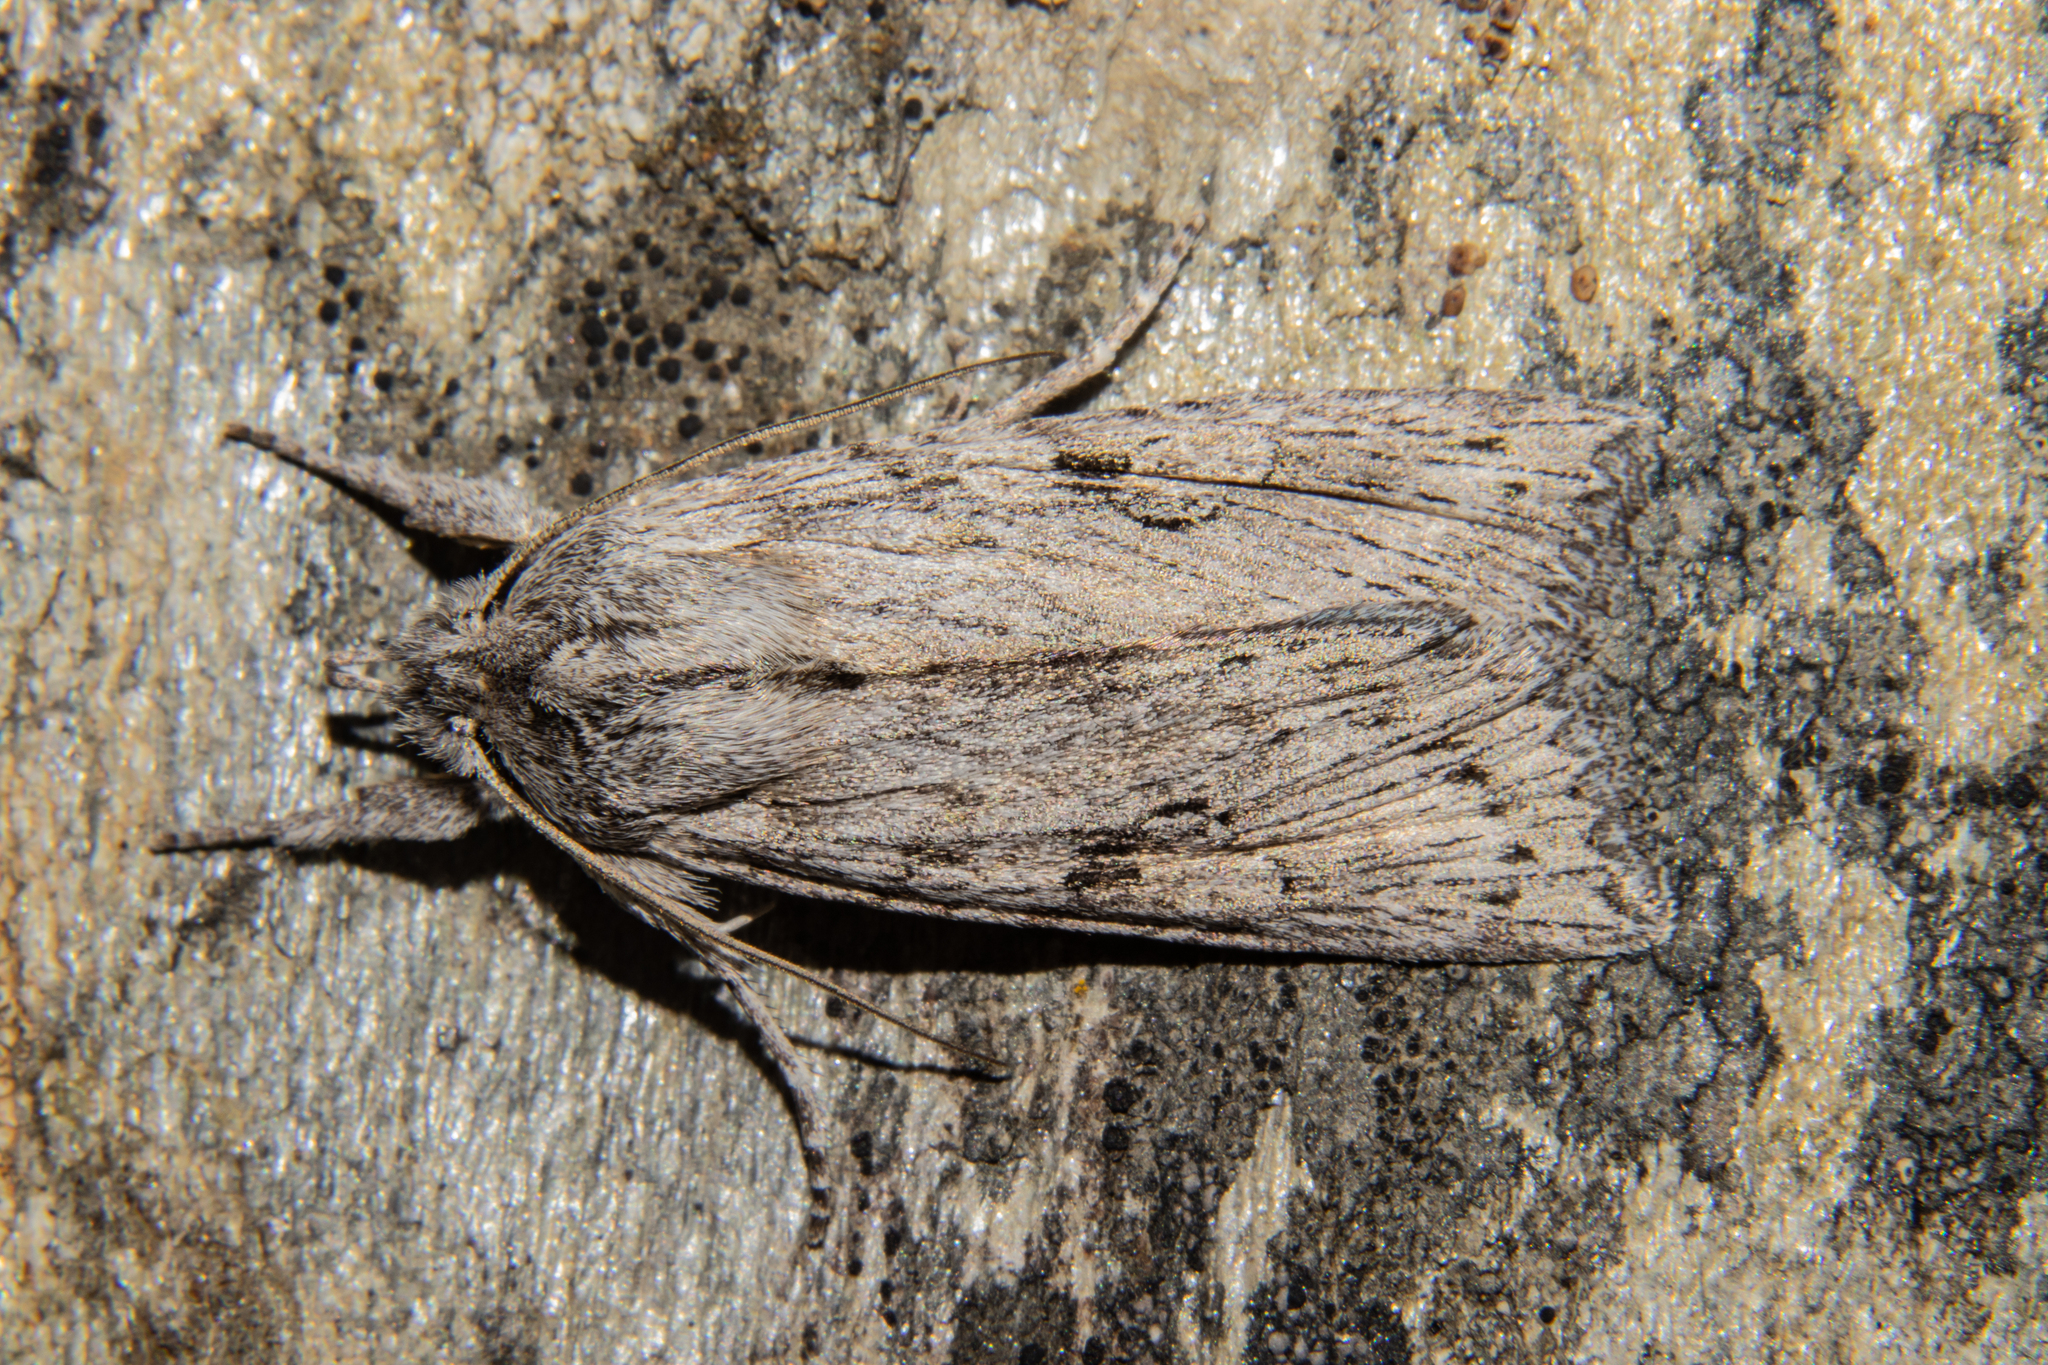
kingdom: Animalia
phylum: Arthropoda
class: Insecta
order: Lepidoptera
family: Noctuidae
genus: Physetica
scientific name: Physetica phricias
